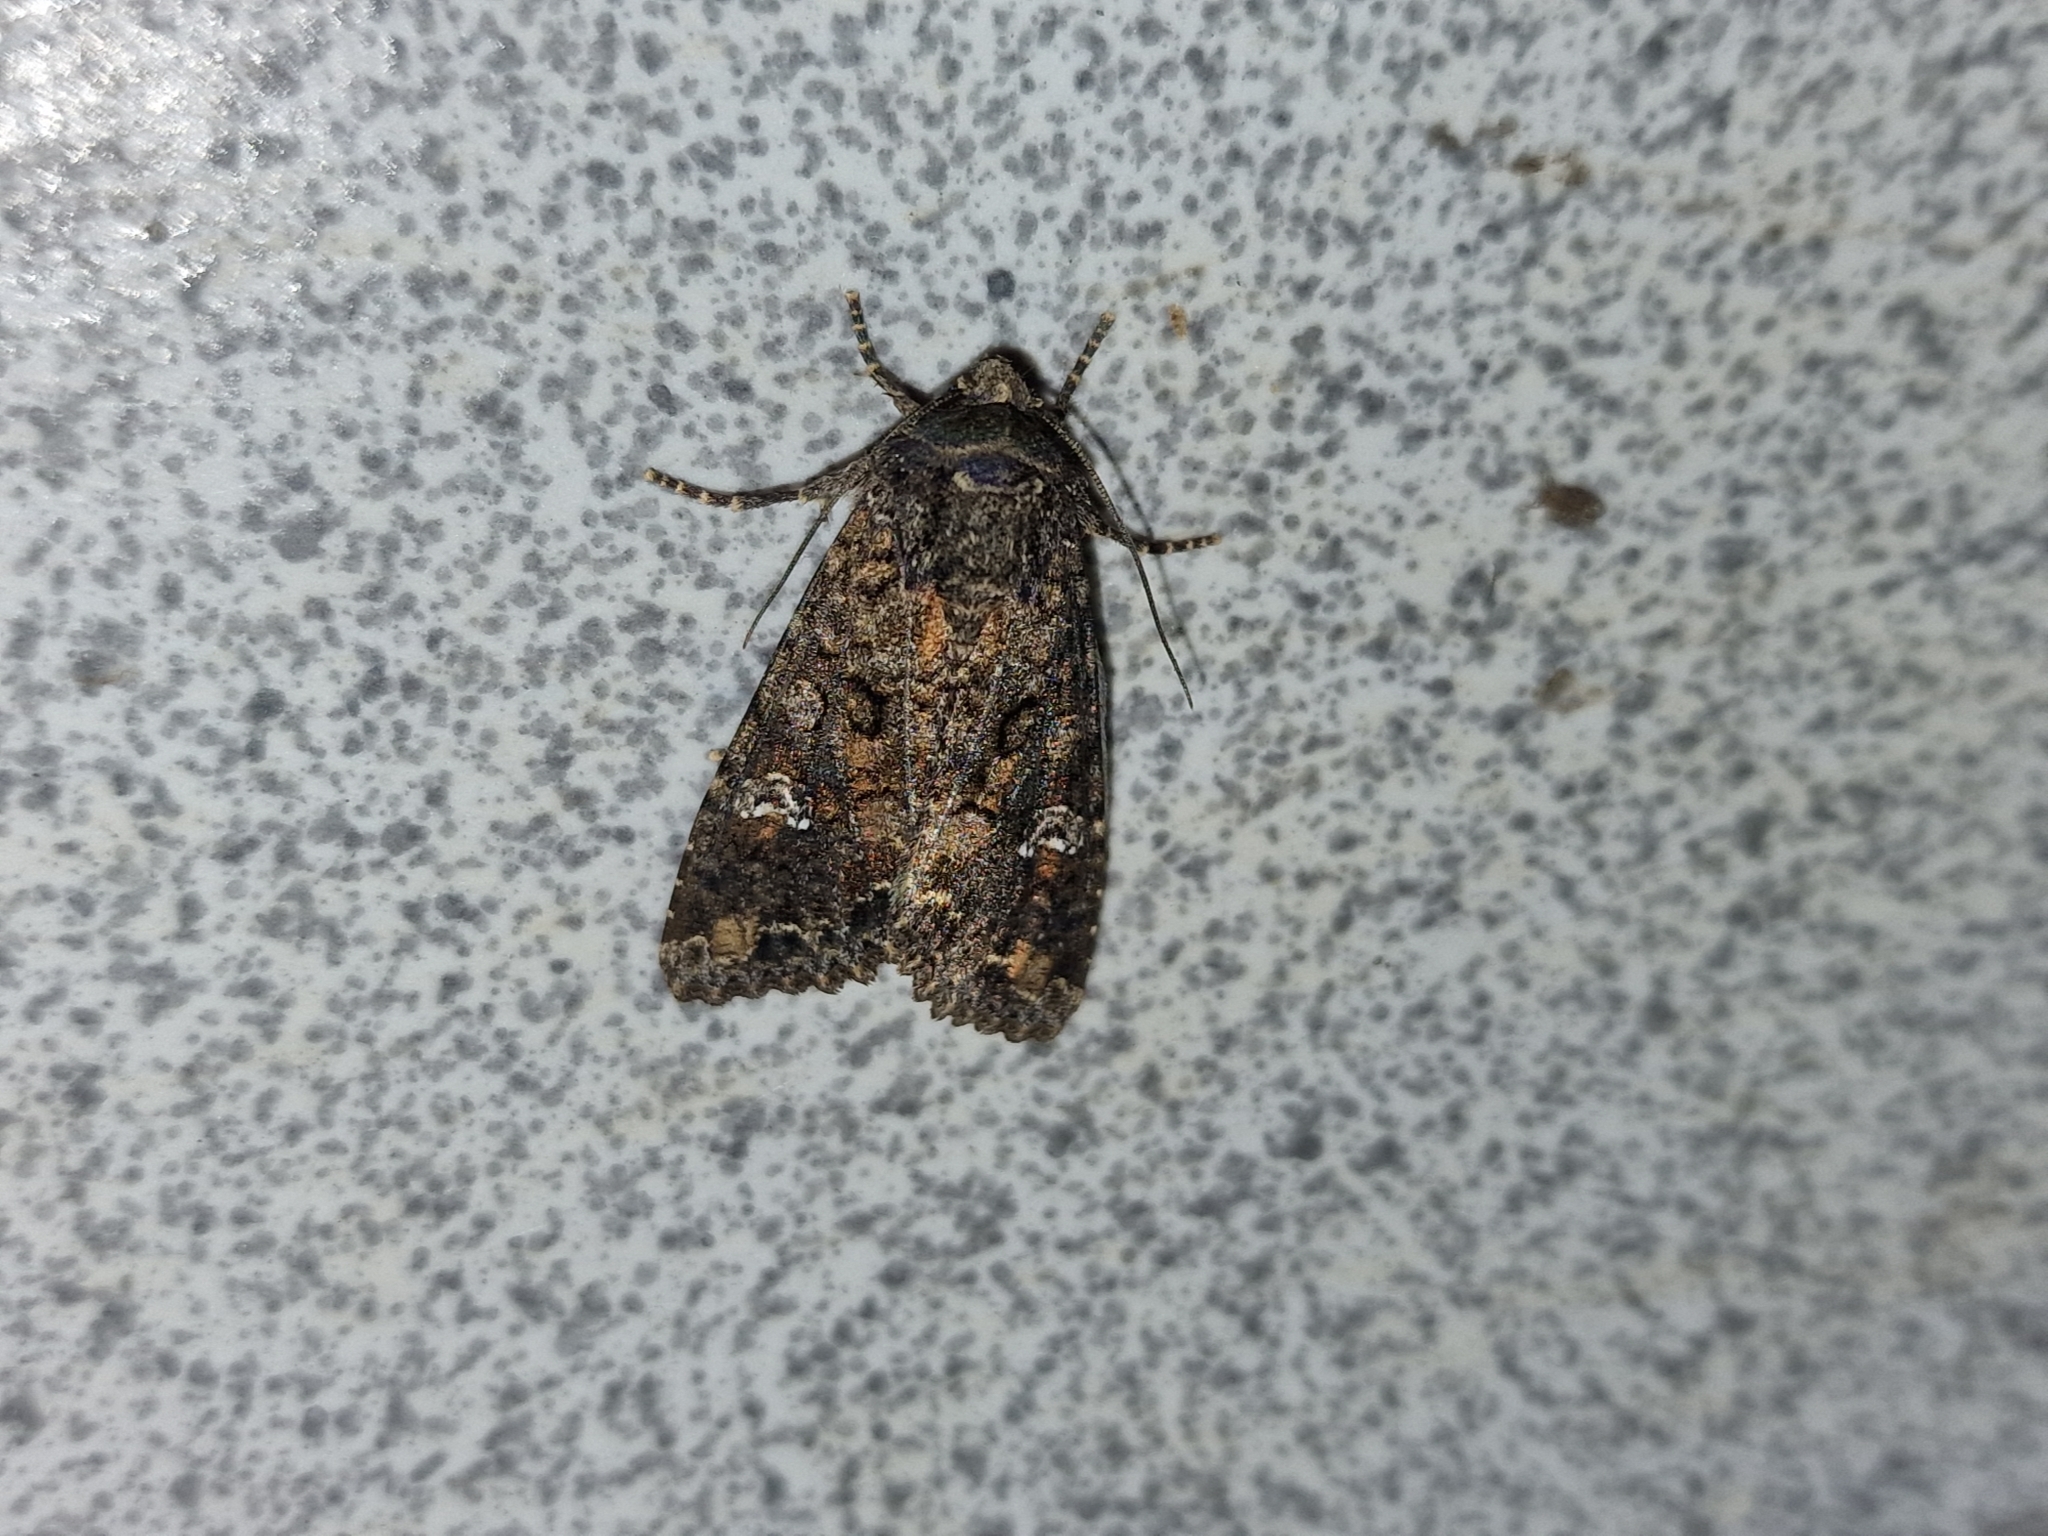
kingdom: Animalia
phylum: Arthropoda
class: Insecta
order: Lepidoptera
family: Noctuidae
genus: Mamestra
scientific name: Mamestra brassicae
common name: Cabbage moth
